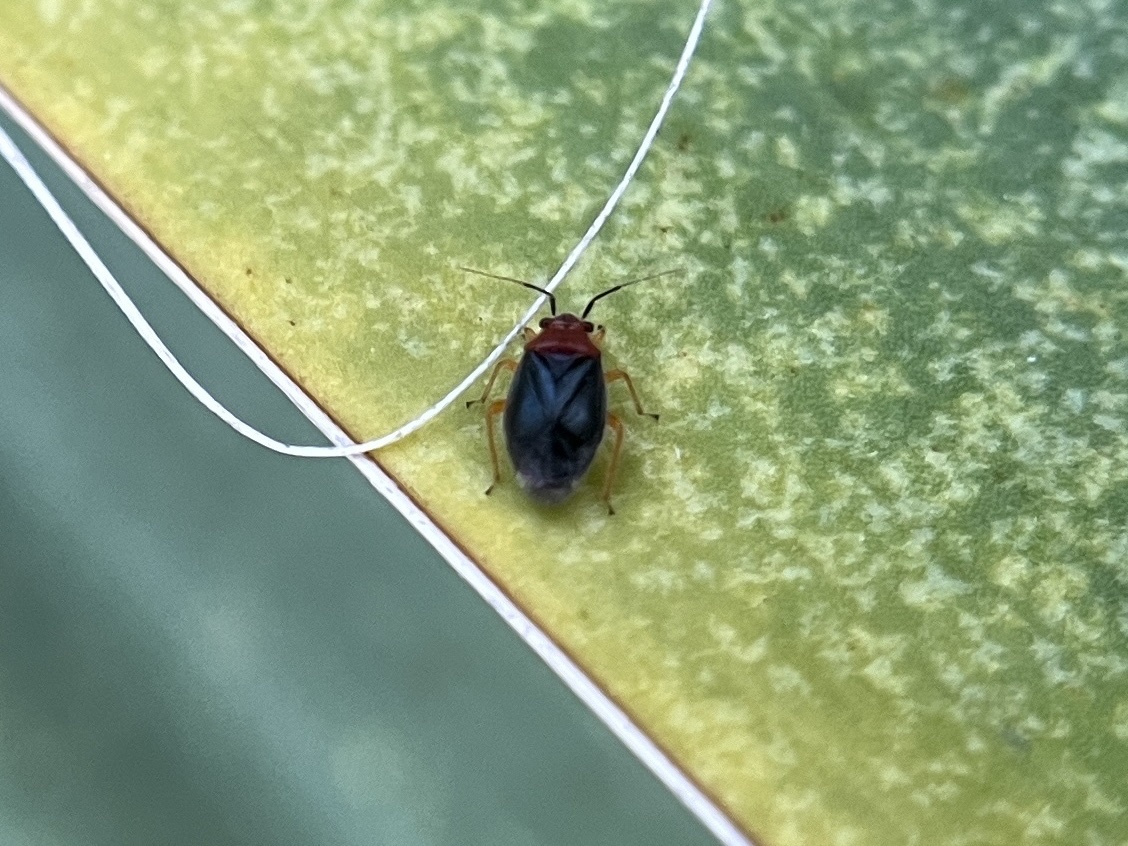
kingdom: Animalia
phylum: Arthropoda
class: Insecta
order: Hemiptera
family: Miridae
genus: Halticotoma
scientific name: Halticotoma valida
